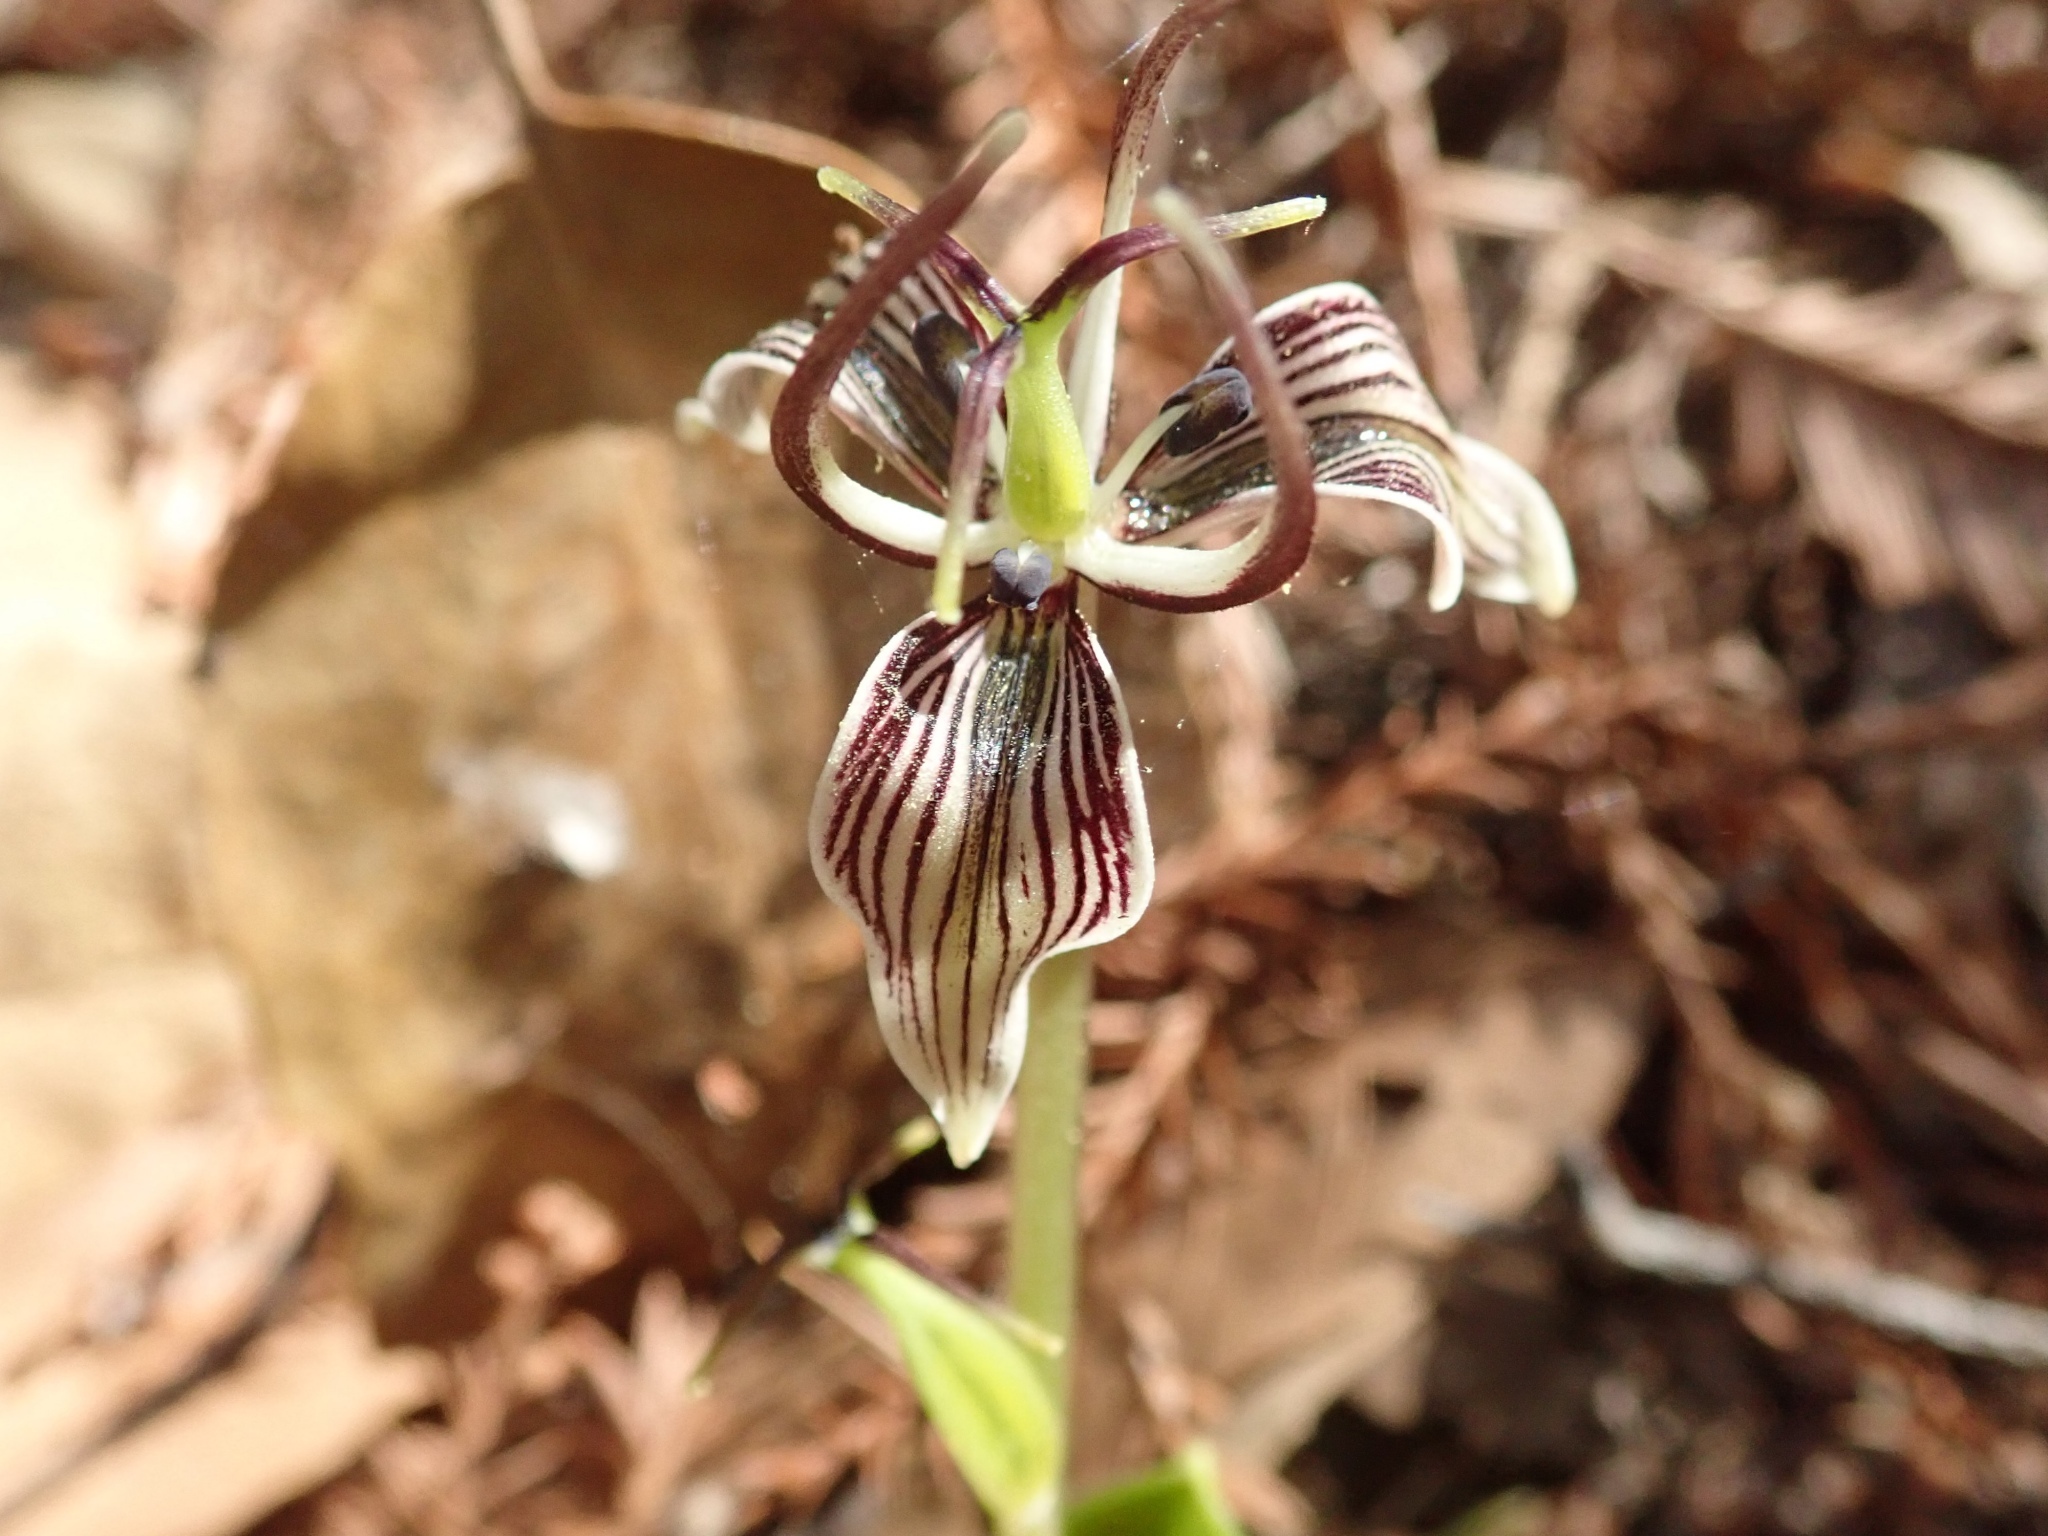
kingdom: Plantae
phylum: Tracheophyta
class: Liliopsida
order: Liliales
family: Liliaceae
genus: Scoliopus
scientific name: Scoliopus bigelovii
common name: Foetid adder's-tongue
